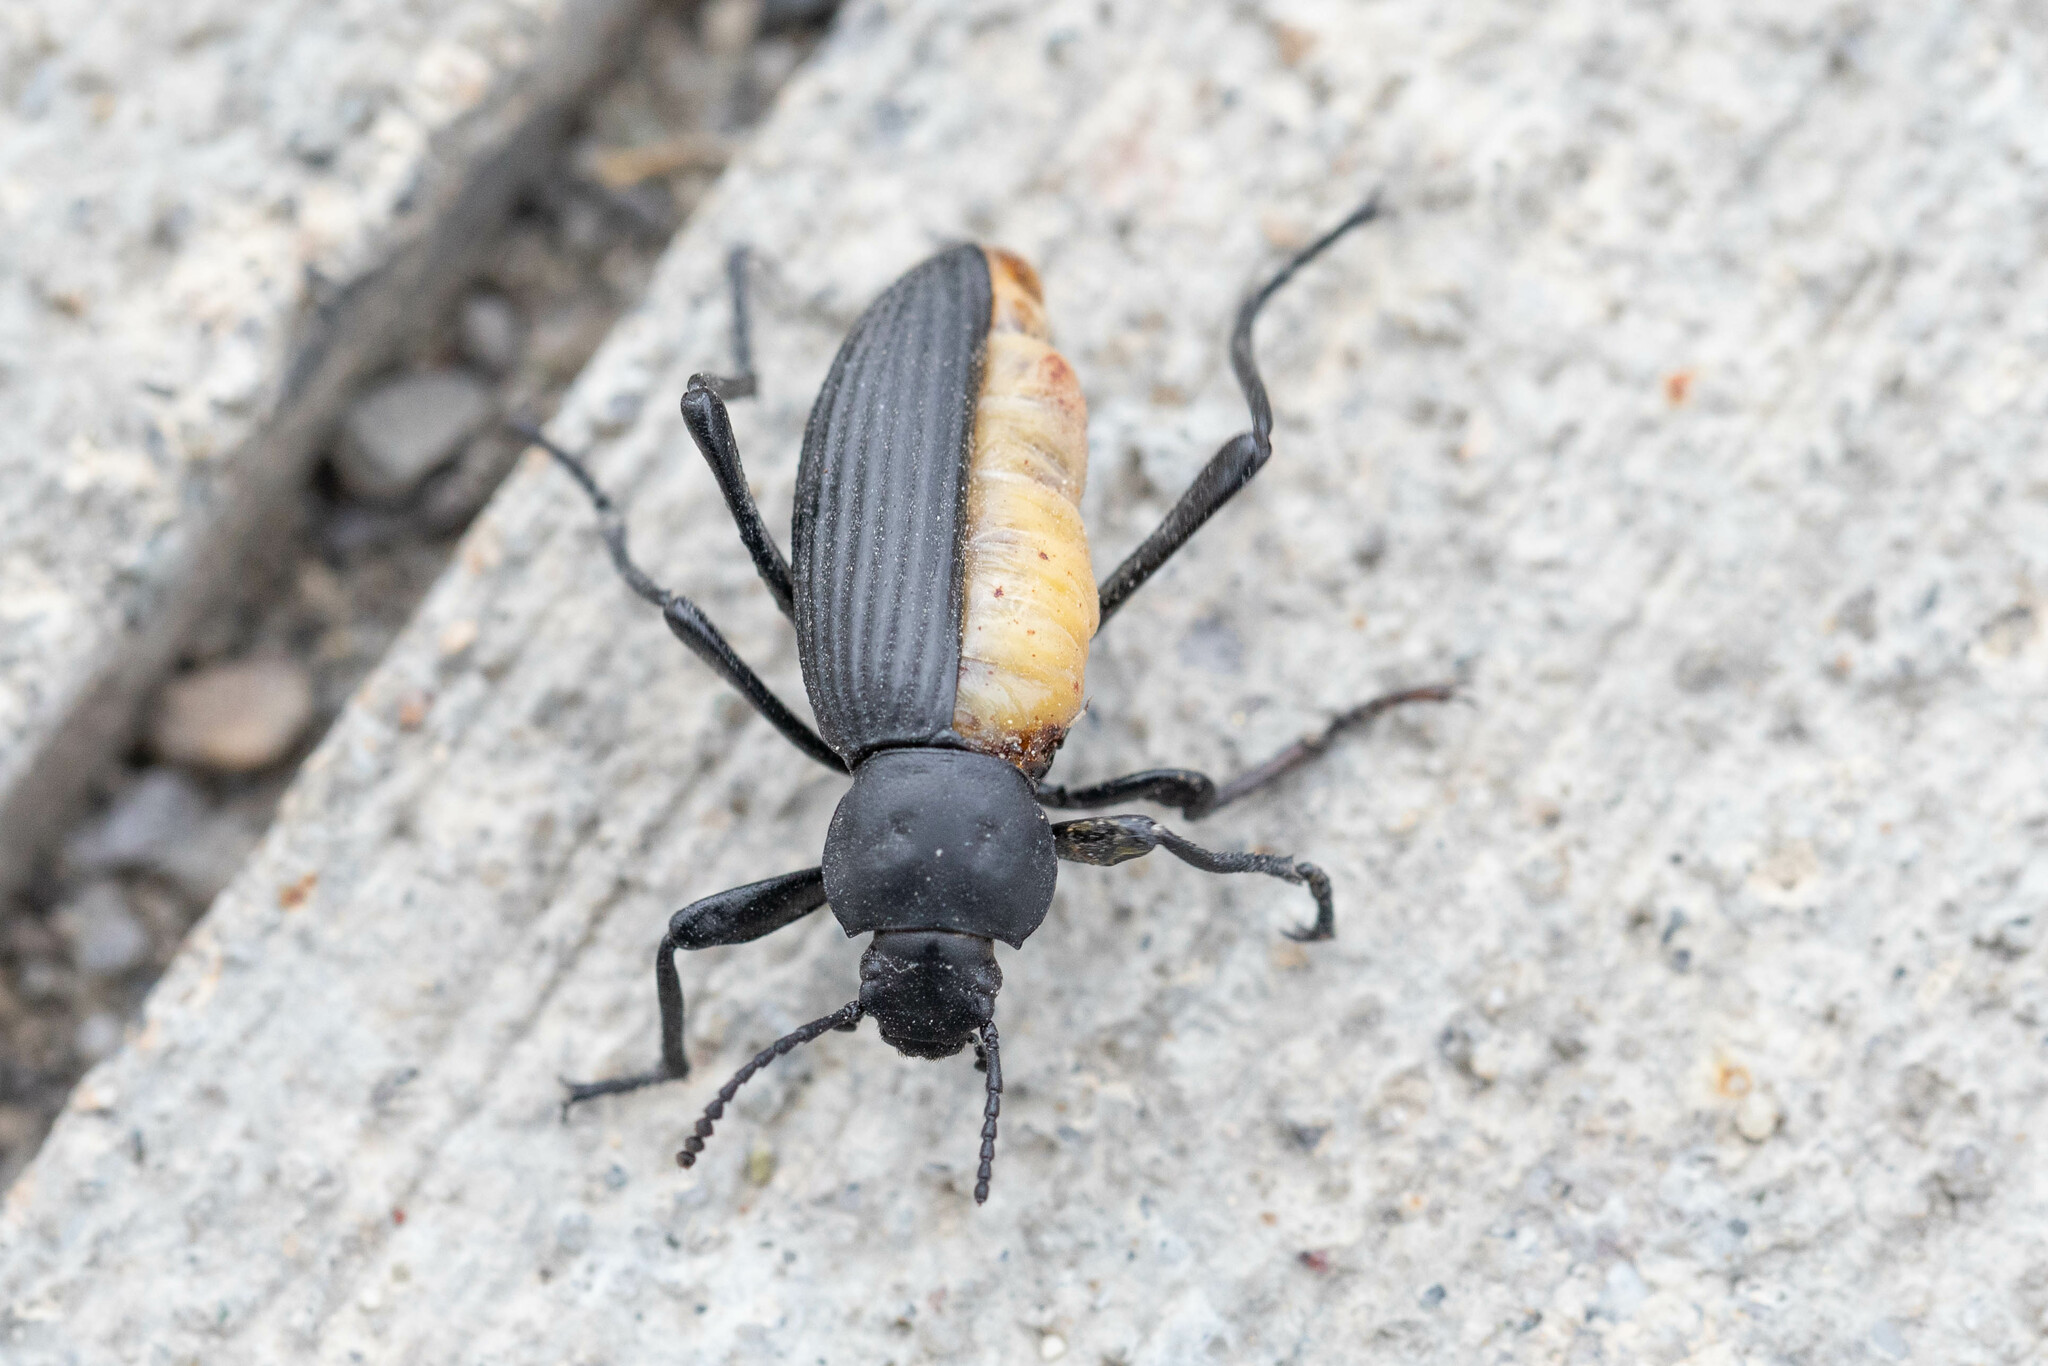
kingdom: Animalia
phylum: Arthropoda
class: Insecta
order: Coleoptera
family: Tenebrionidae
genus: Eleodes
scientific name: Eleodes hispilabris
